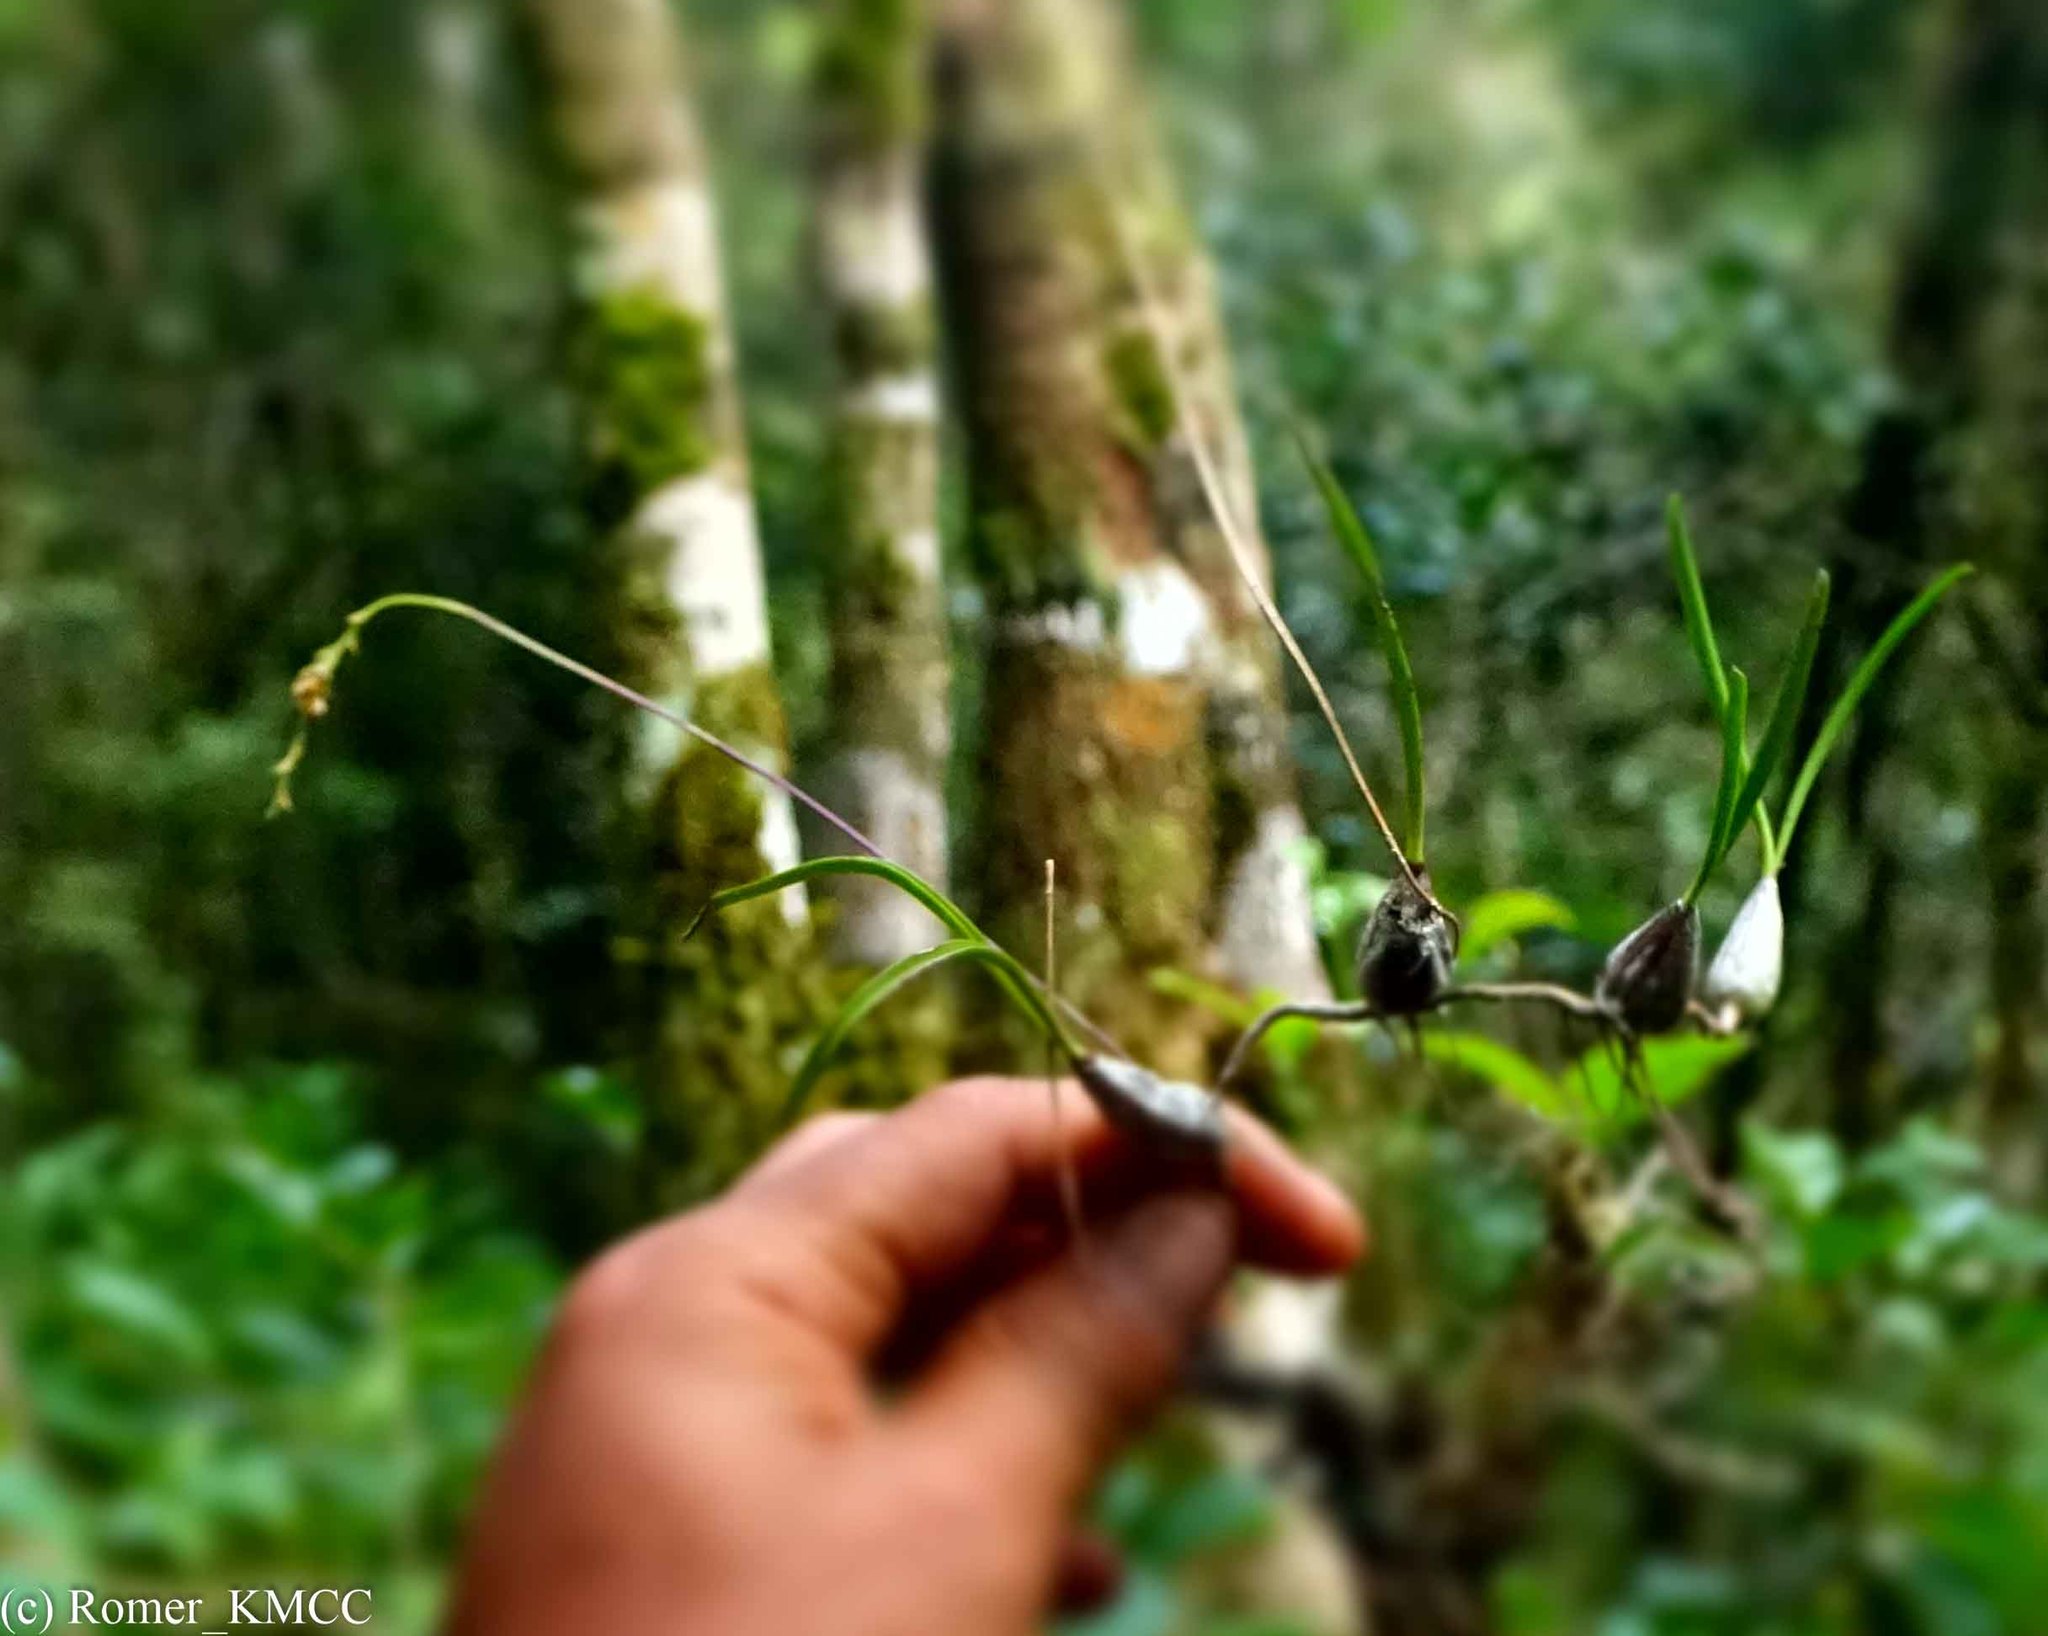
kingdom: Plantae
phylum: Tracheophyta
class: Liliopsida
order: Asparagales
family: Orchidaceae
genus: Bulbophyllum
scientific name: Bulbophyllum rauhii
